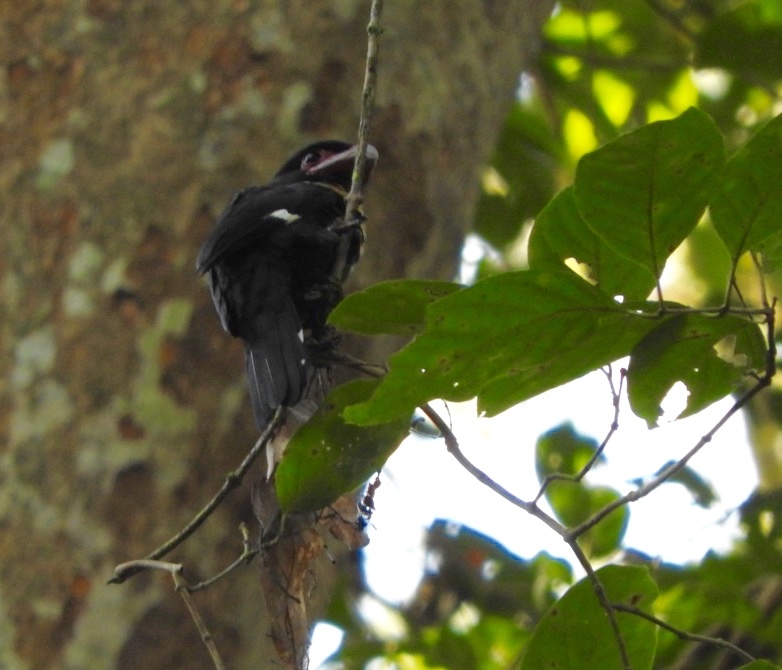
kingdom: Animalia
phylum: Chordata
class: Aves
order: Passeriformes
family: Eurylaimidae
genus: Corydon
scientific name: Corydon sumatranus
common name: Dusky broadbill
